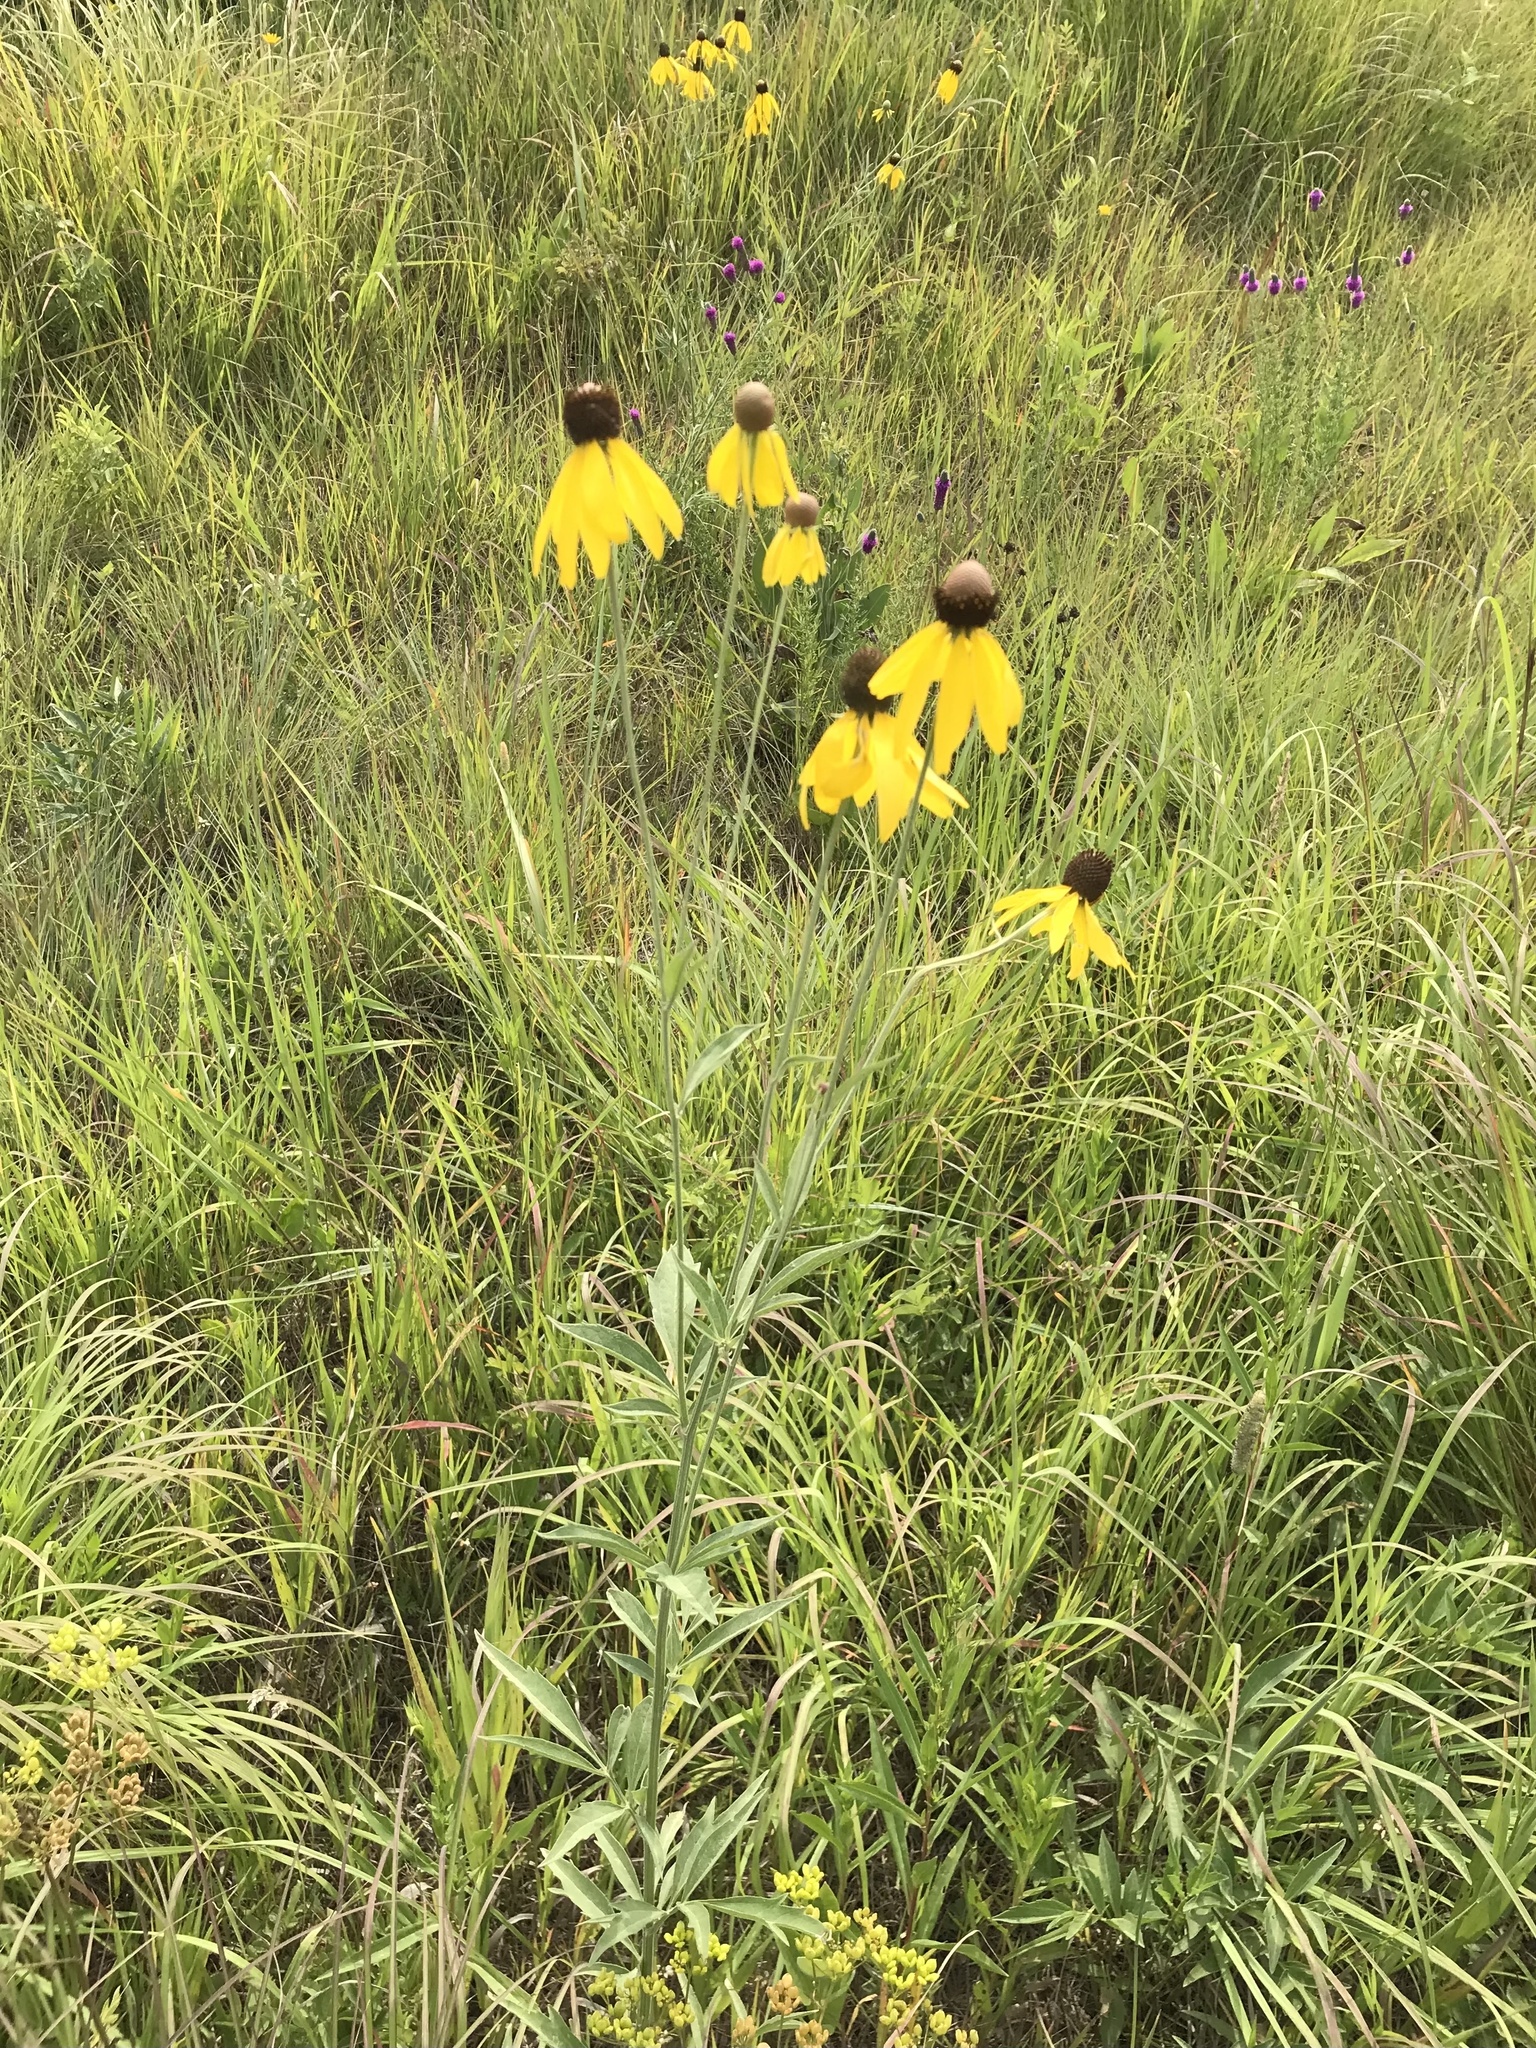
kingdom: Plantae
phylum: Tracheophyta
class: Magnoliopsida
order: Asterales
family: Asteraceae
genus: Ratibida
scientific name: Ratibida pinnata
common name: Drooping prairie-coneflower
